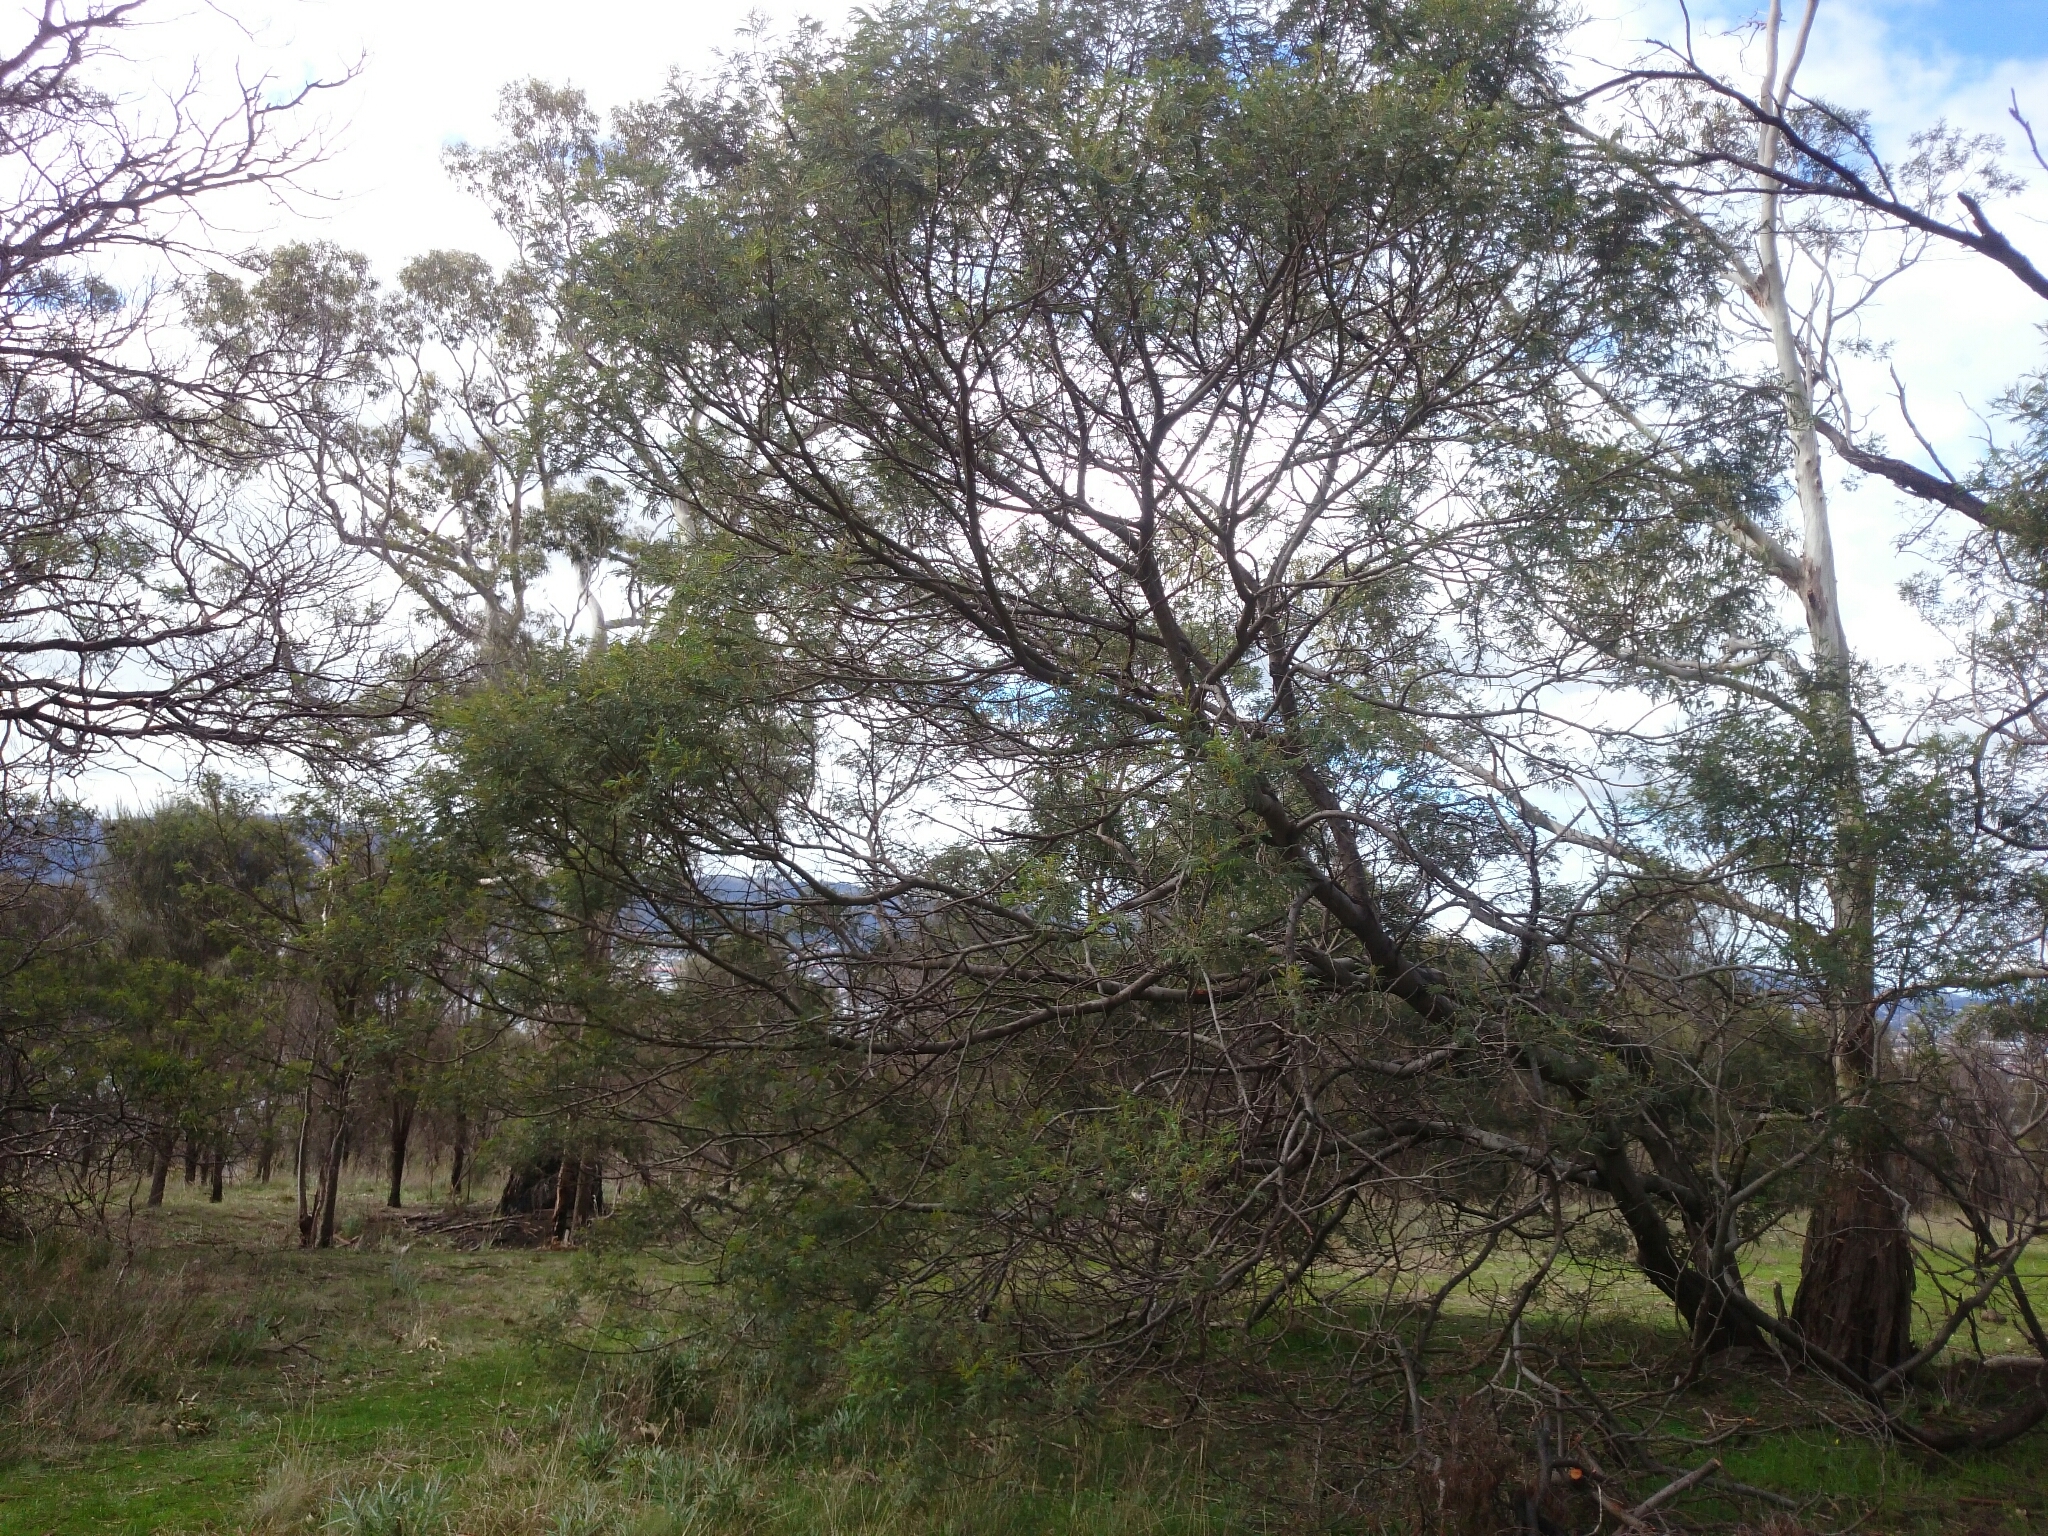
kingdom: Plantae
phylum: Tracheophyta
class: Magnoliopsida
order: Fabales
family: Fabaceae
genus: Acacia
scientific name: Acacia mearnsii
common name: Black wattle
